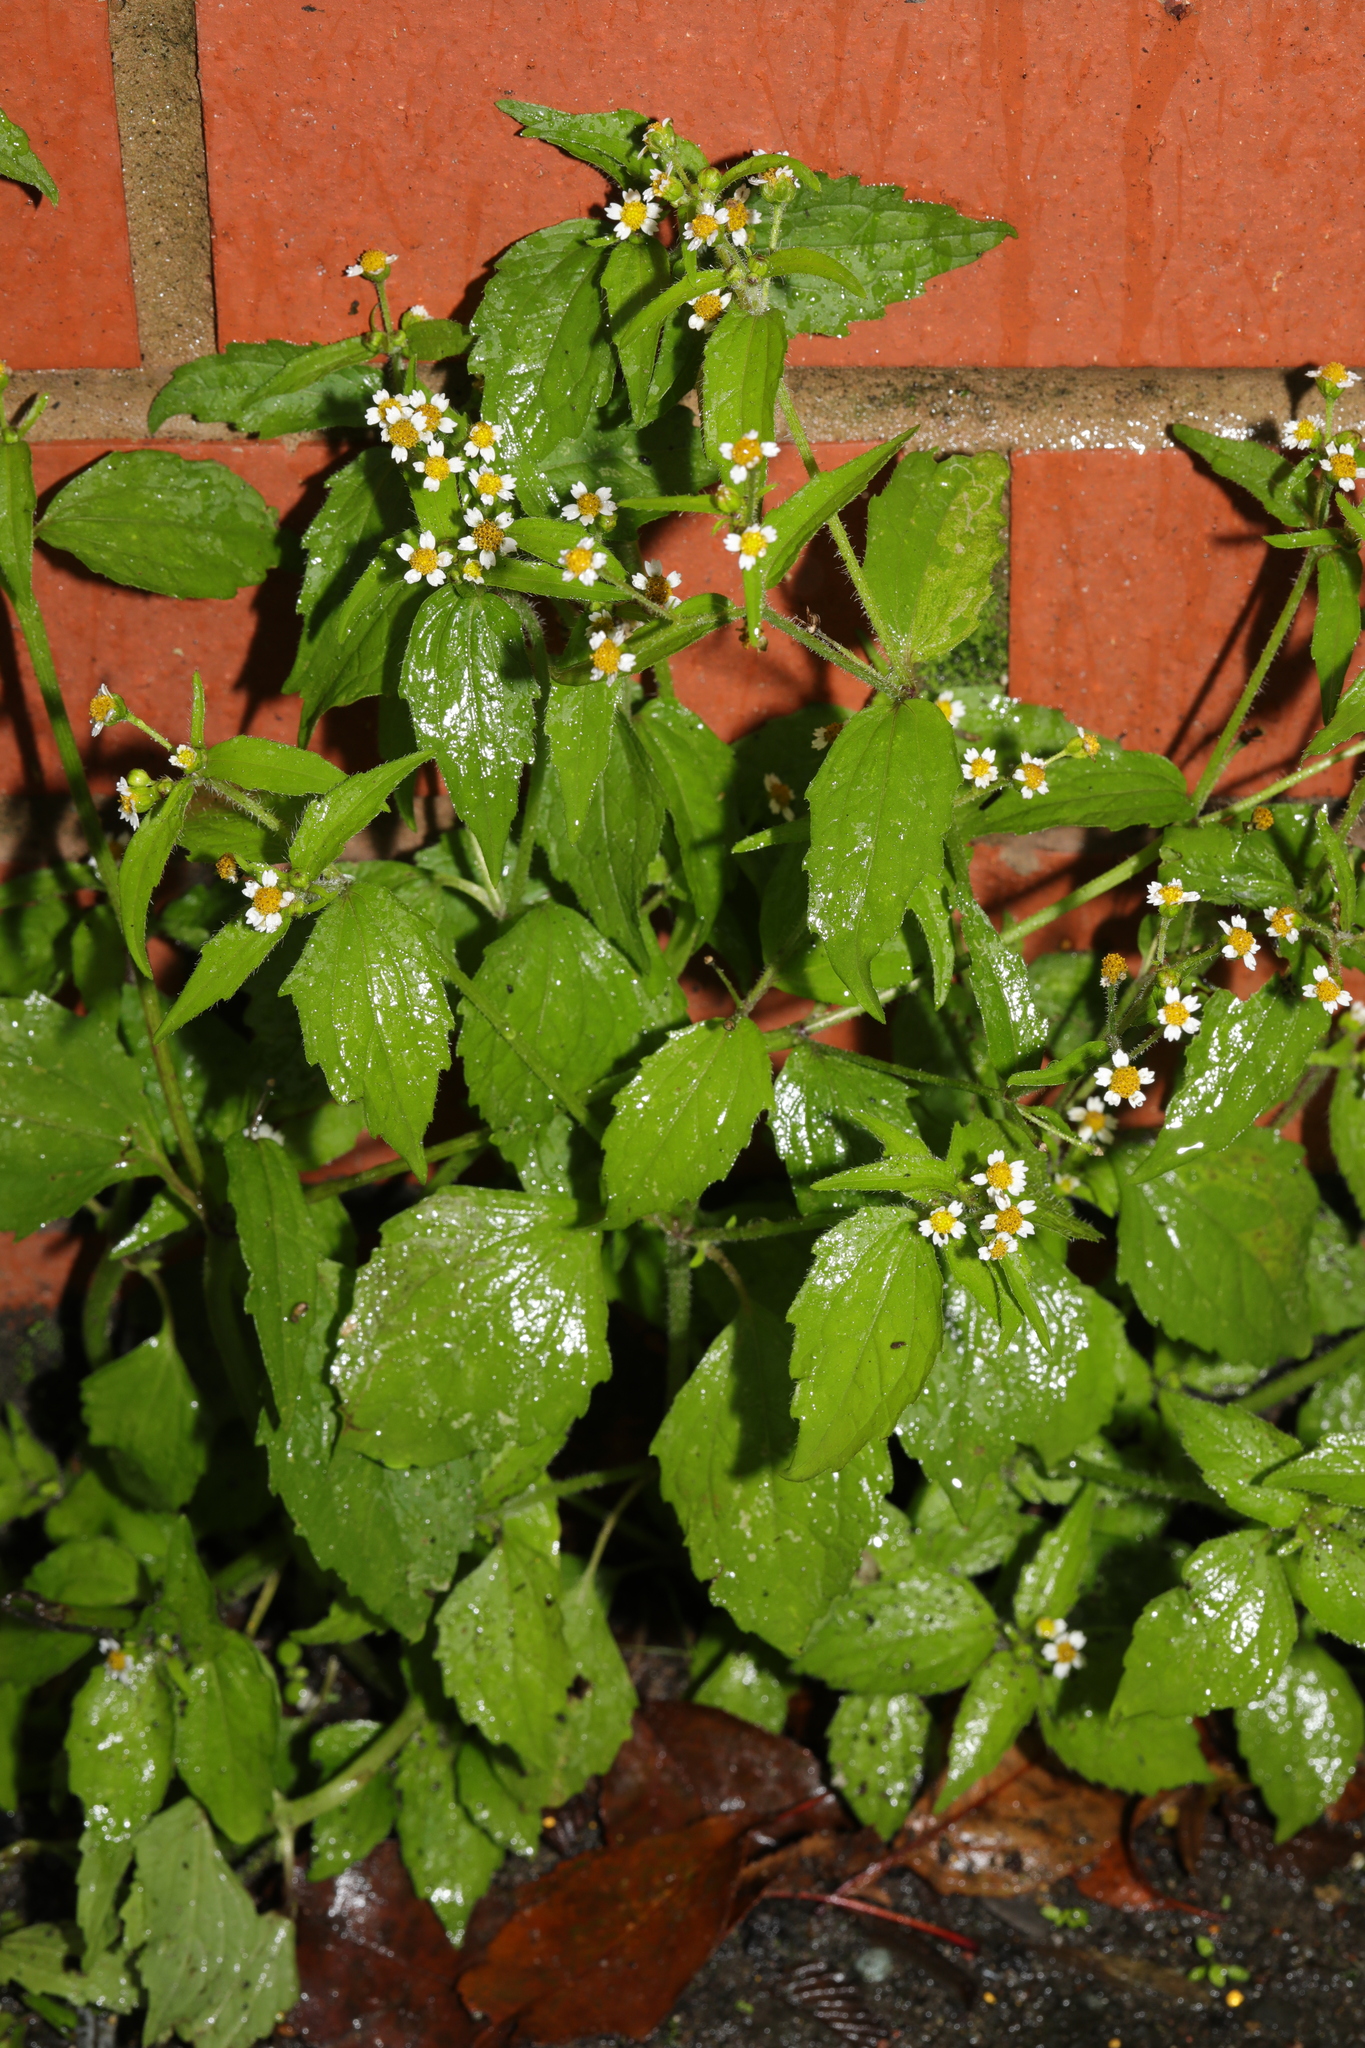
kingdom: Plantae
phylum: Tracheophyta
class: Magnoliopsida
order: Asterales
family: Asteraceae
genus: Galinsoga
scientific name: Galinsoga quadriradiata
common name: Shaggy soldier
